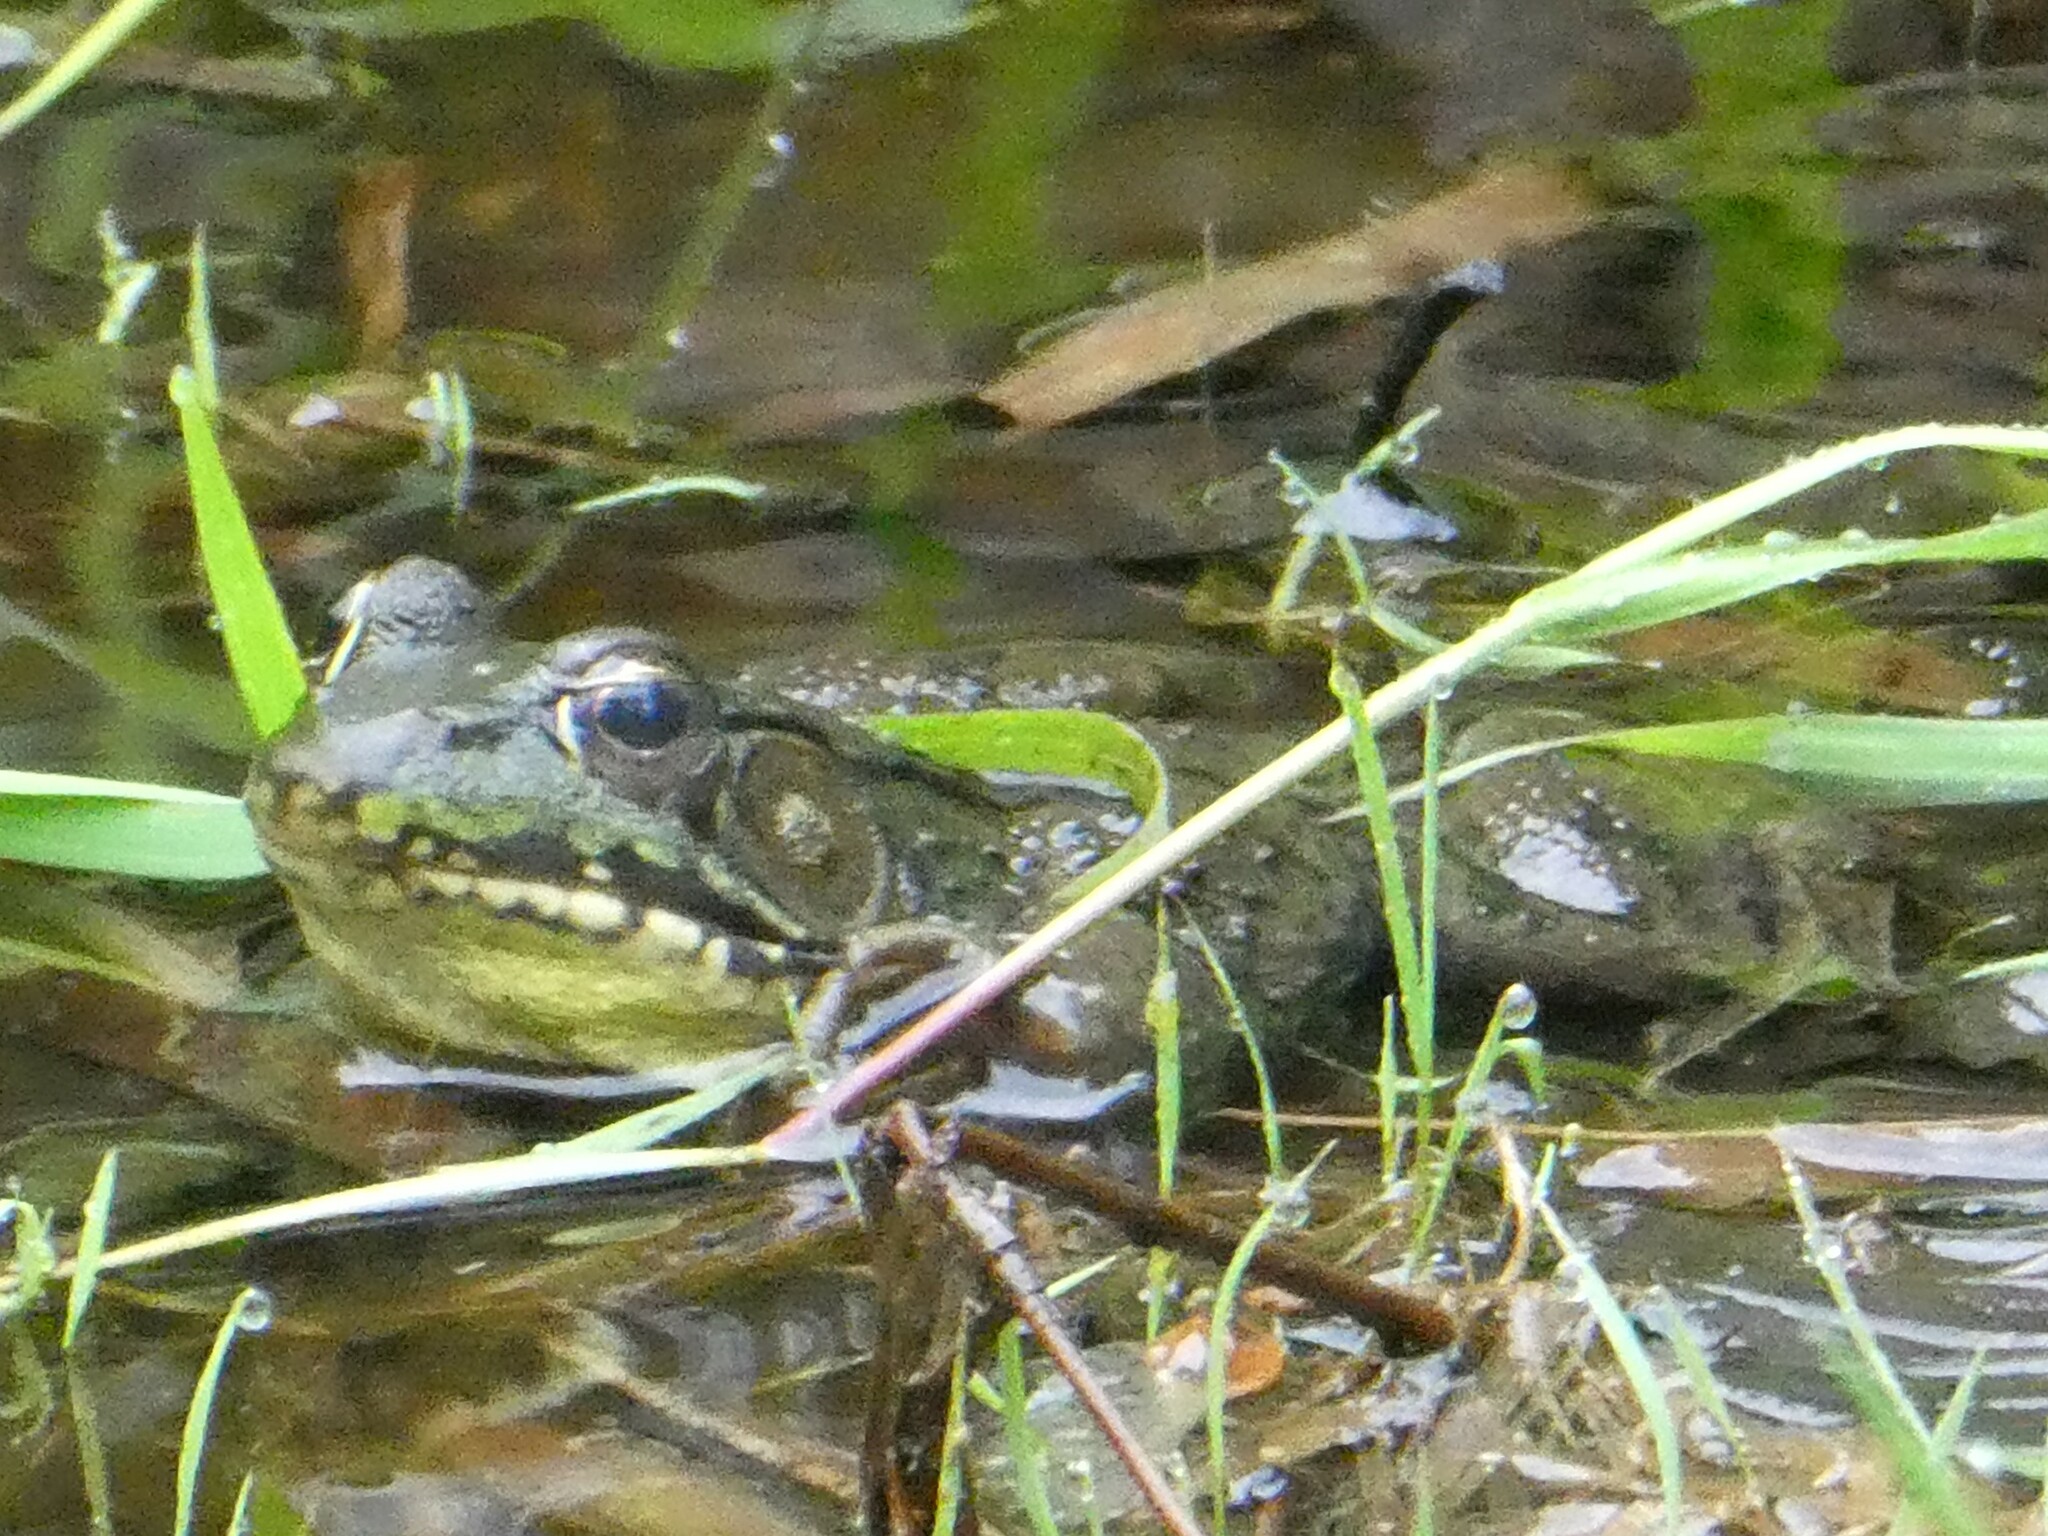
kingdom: Animalia
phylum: Chordata
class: Amphibia
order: Anura
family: Ranidae
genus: Lithobates
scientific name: Lithobates clamitans
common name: Green frog
